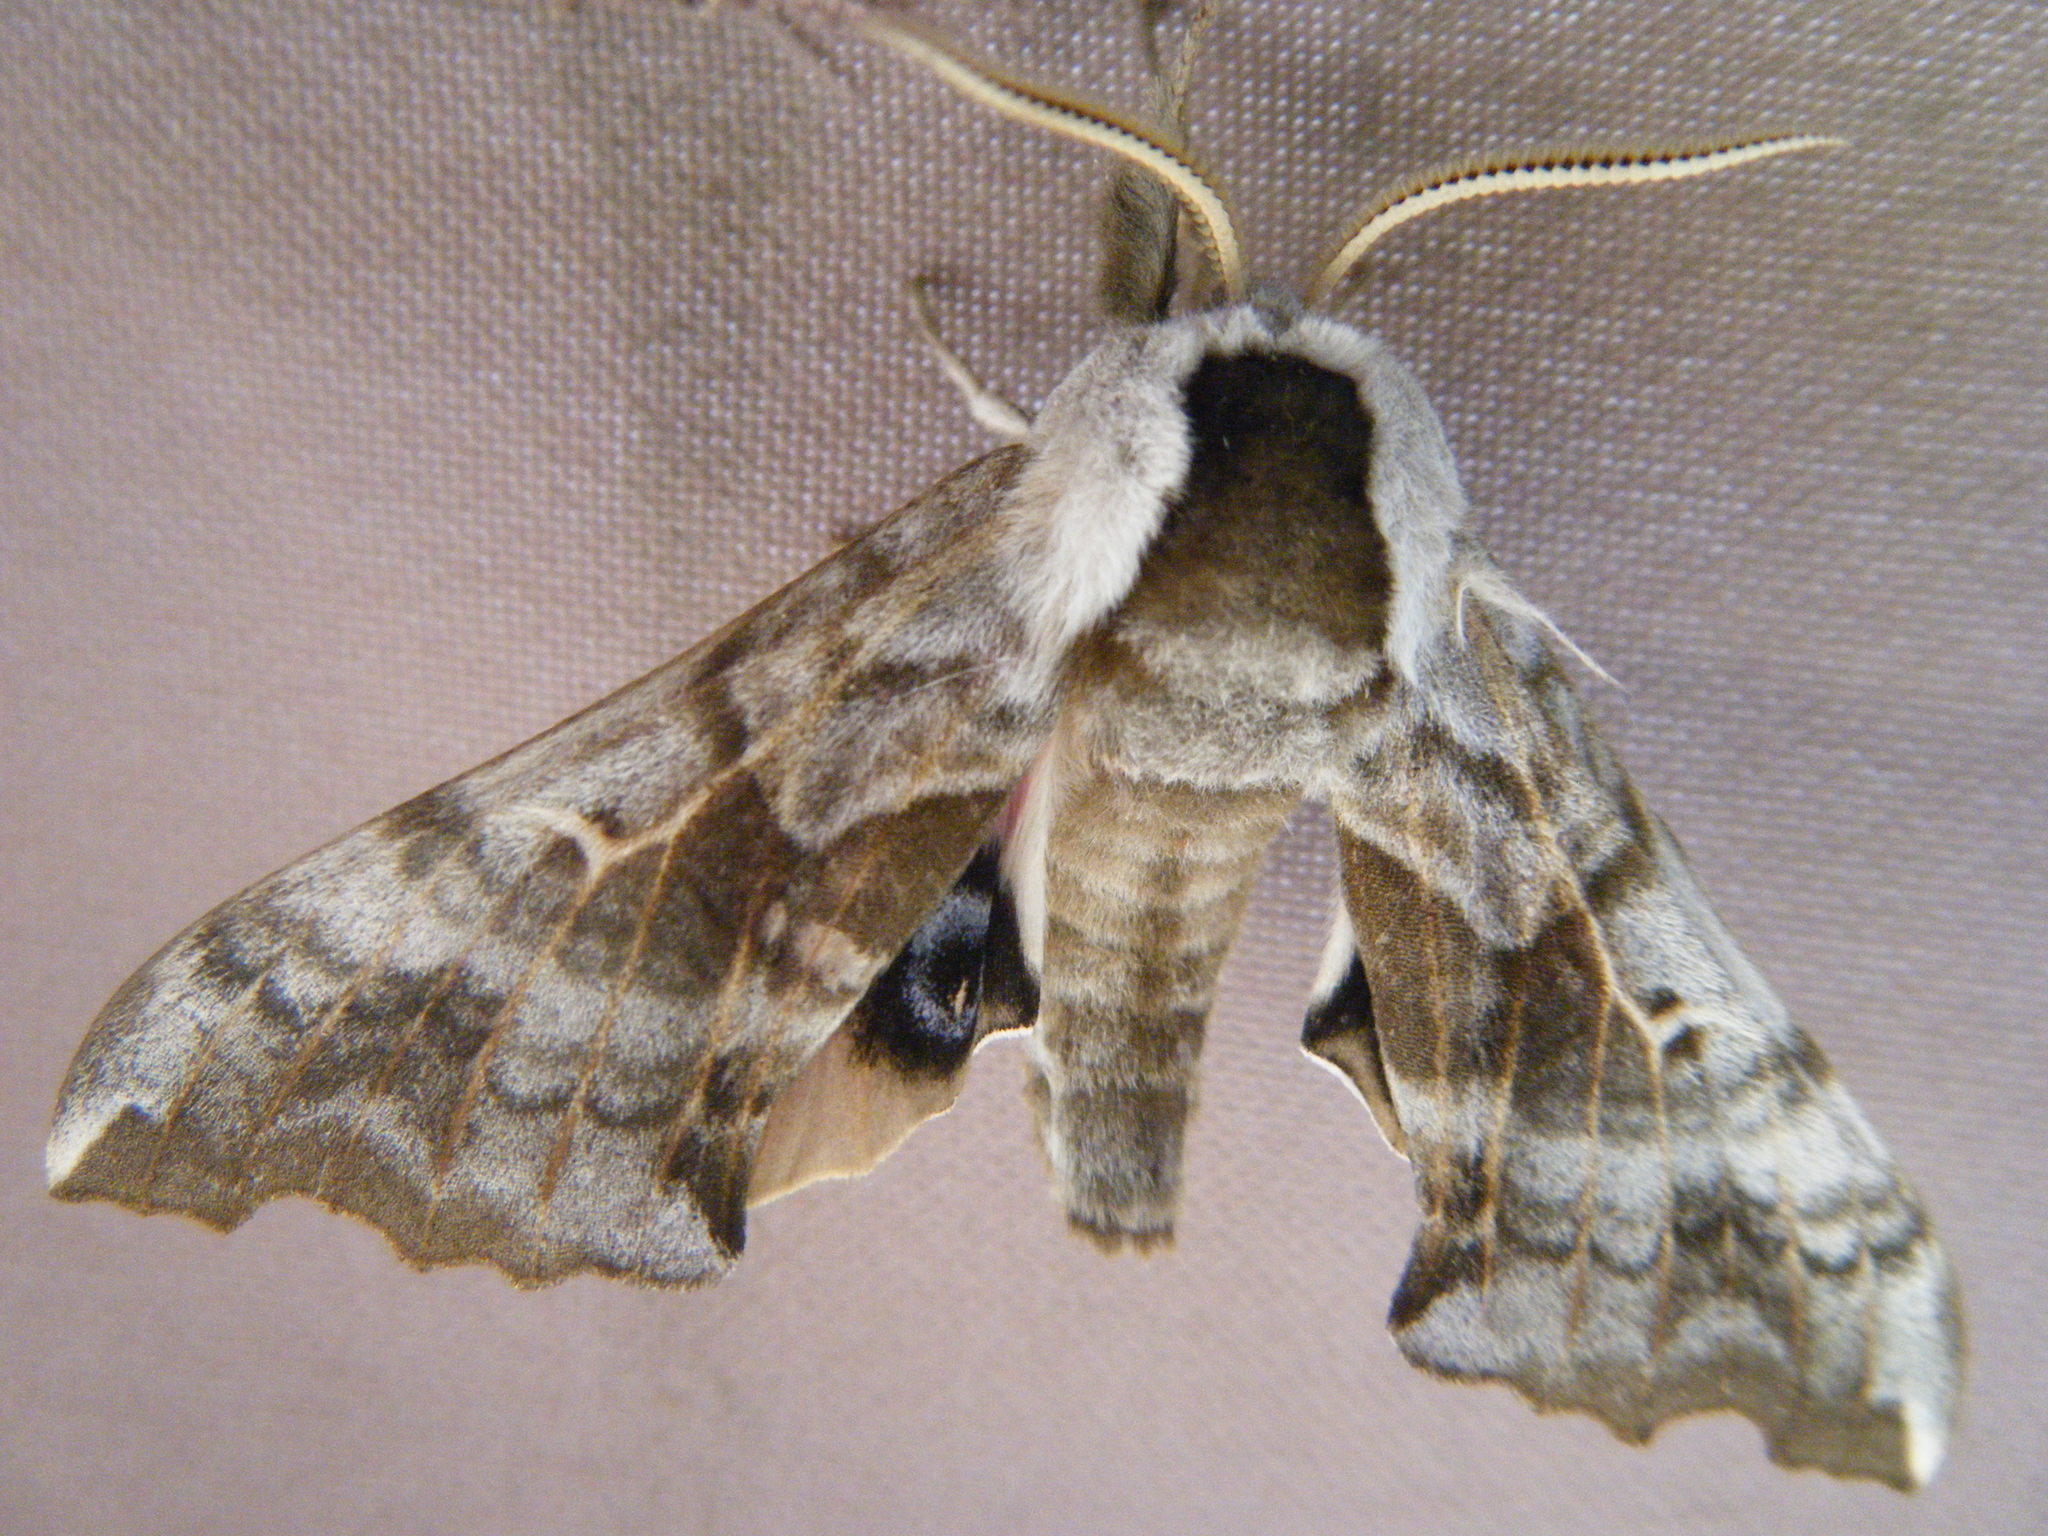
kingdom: Animalia
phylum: Arthropoda
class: Insecta
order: Lepidoptera
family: Sphingidae
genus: Smerinthus
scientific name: Smerinthus cerisyi
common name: Cerisy's sphinx moth
